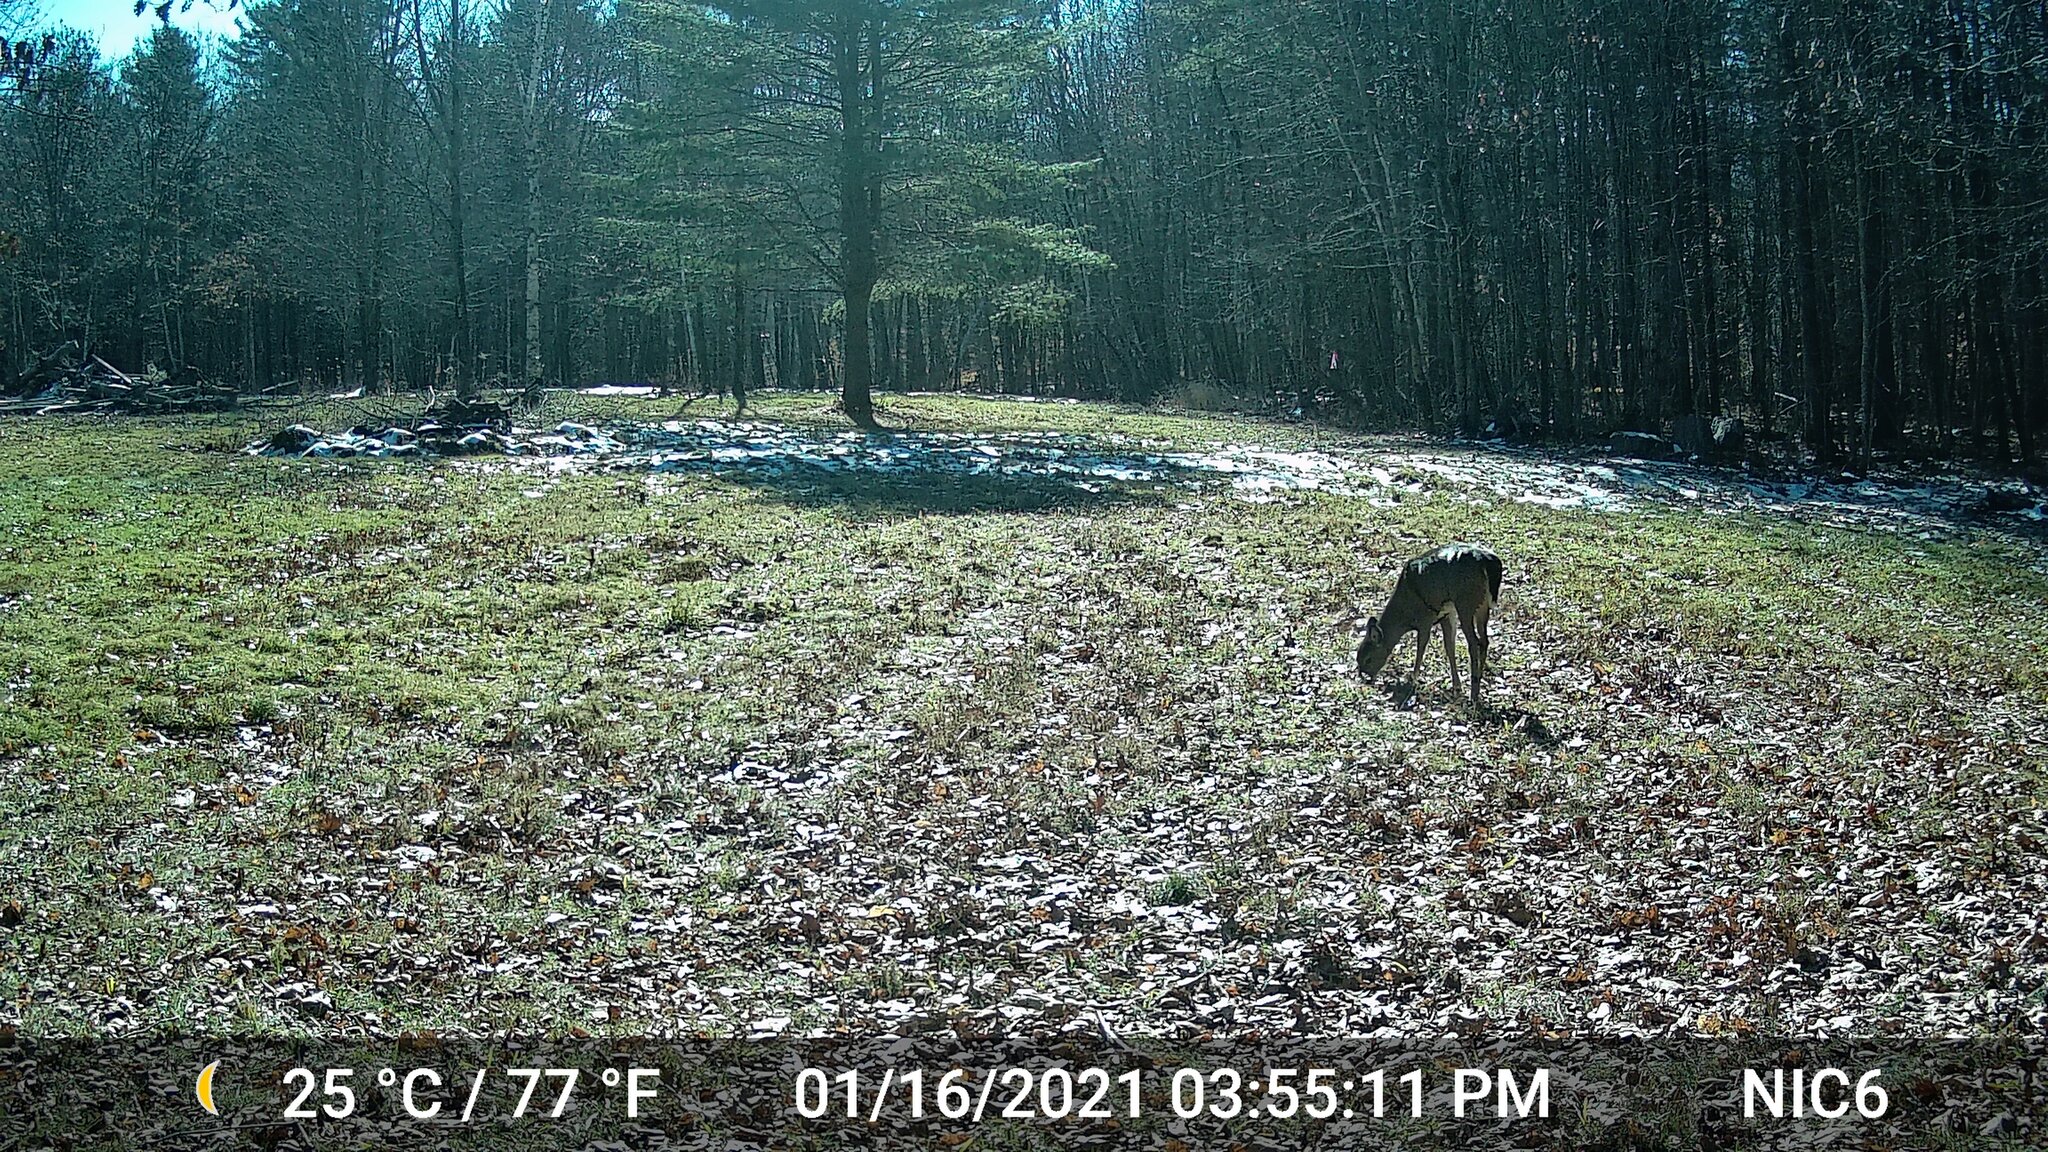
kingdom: Animalia
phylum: Chordata
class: Mammalia
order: Artiodactyla
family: Cervidae
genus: Odocoileus
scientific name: Odocoileus virginianus
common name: White-tailed deer
